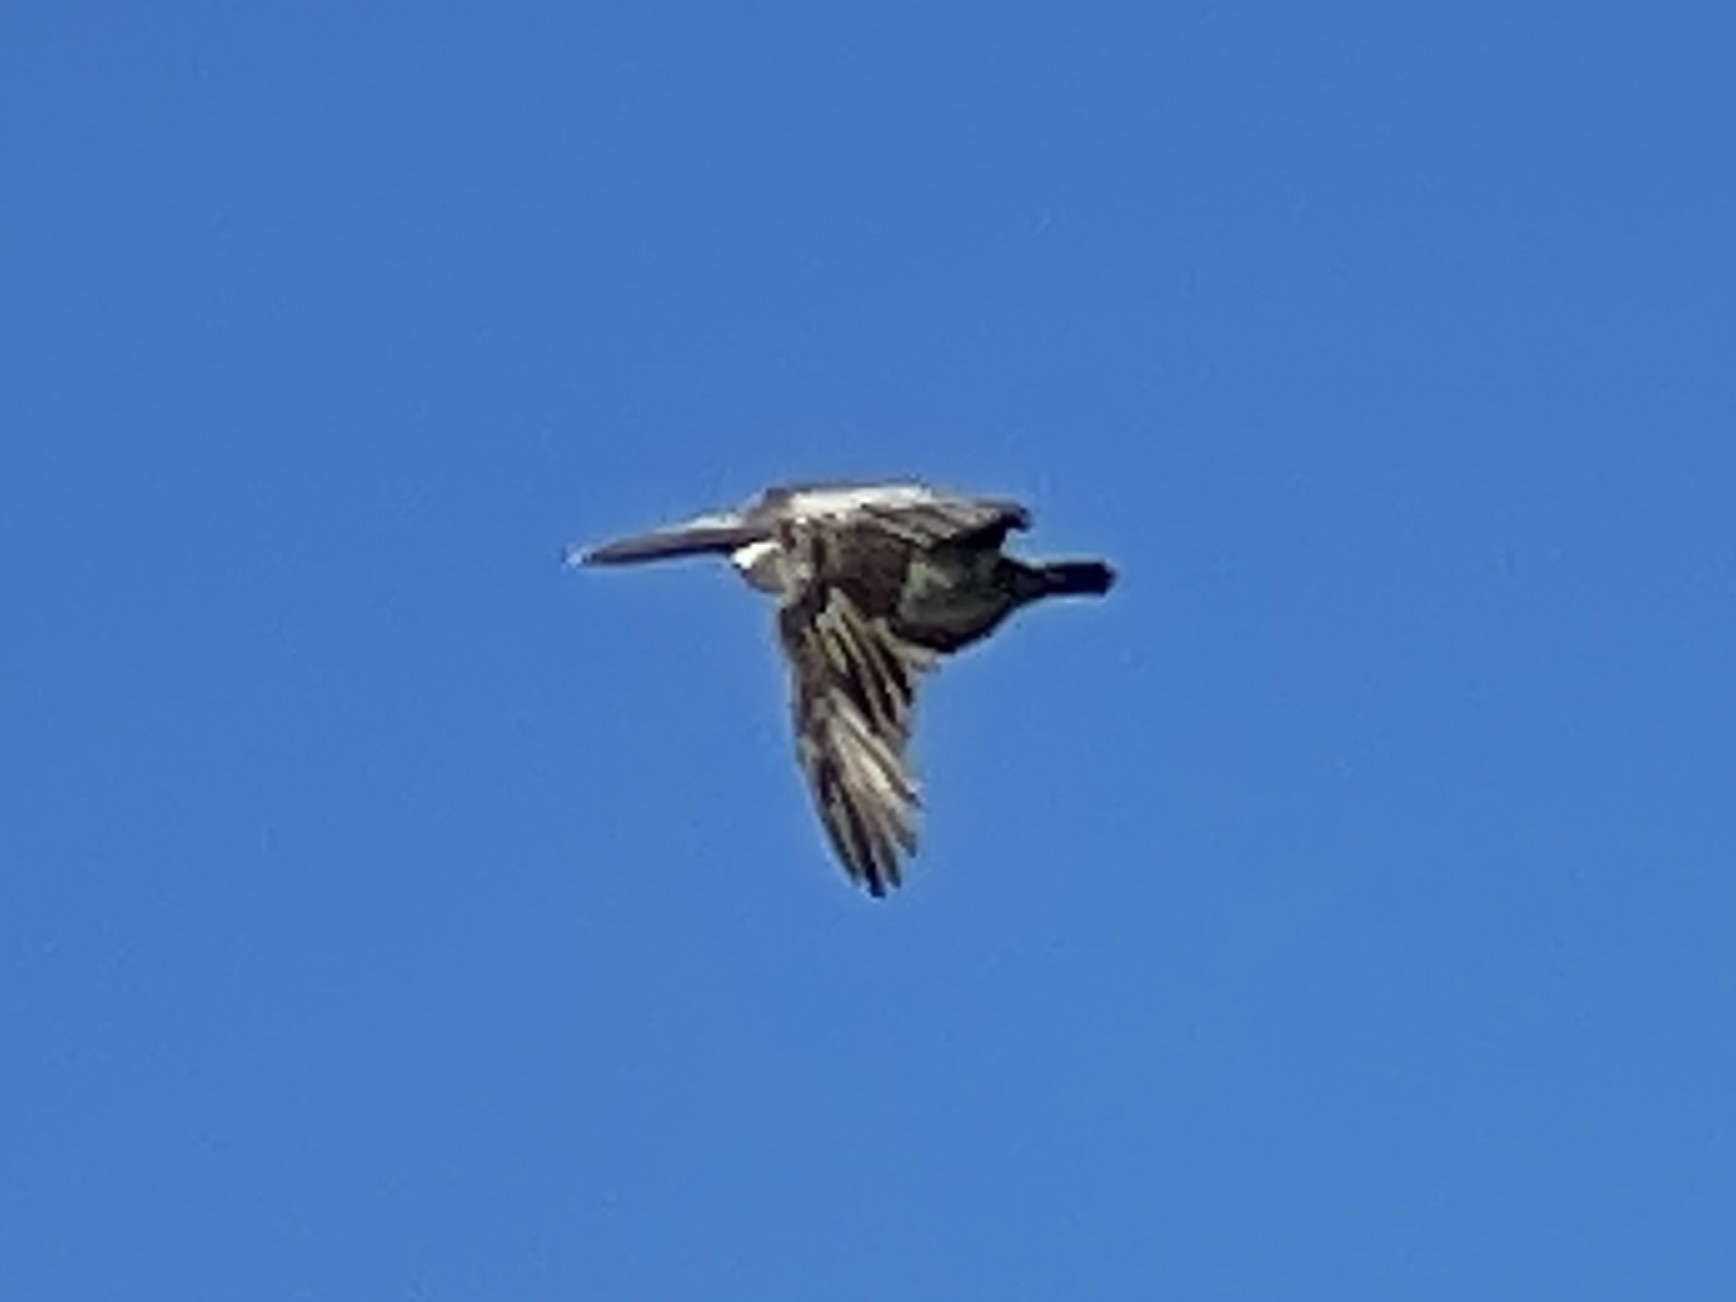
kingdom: Animalia
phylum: Chordata
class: Aves
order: Pelecaniformes
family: Pelecanidae
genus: Pelecanus
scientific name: Pelecanus occidentalis
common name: Brown pelican
